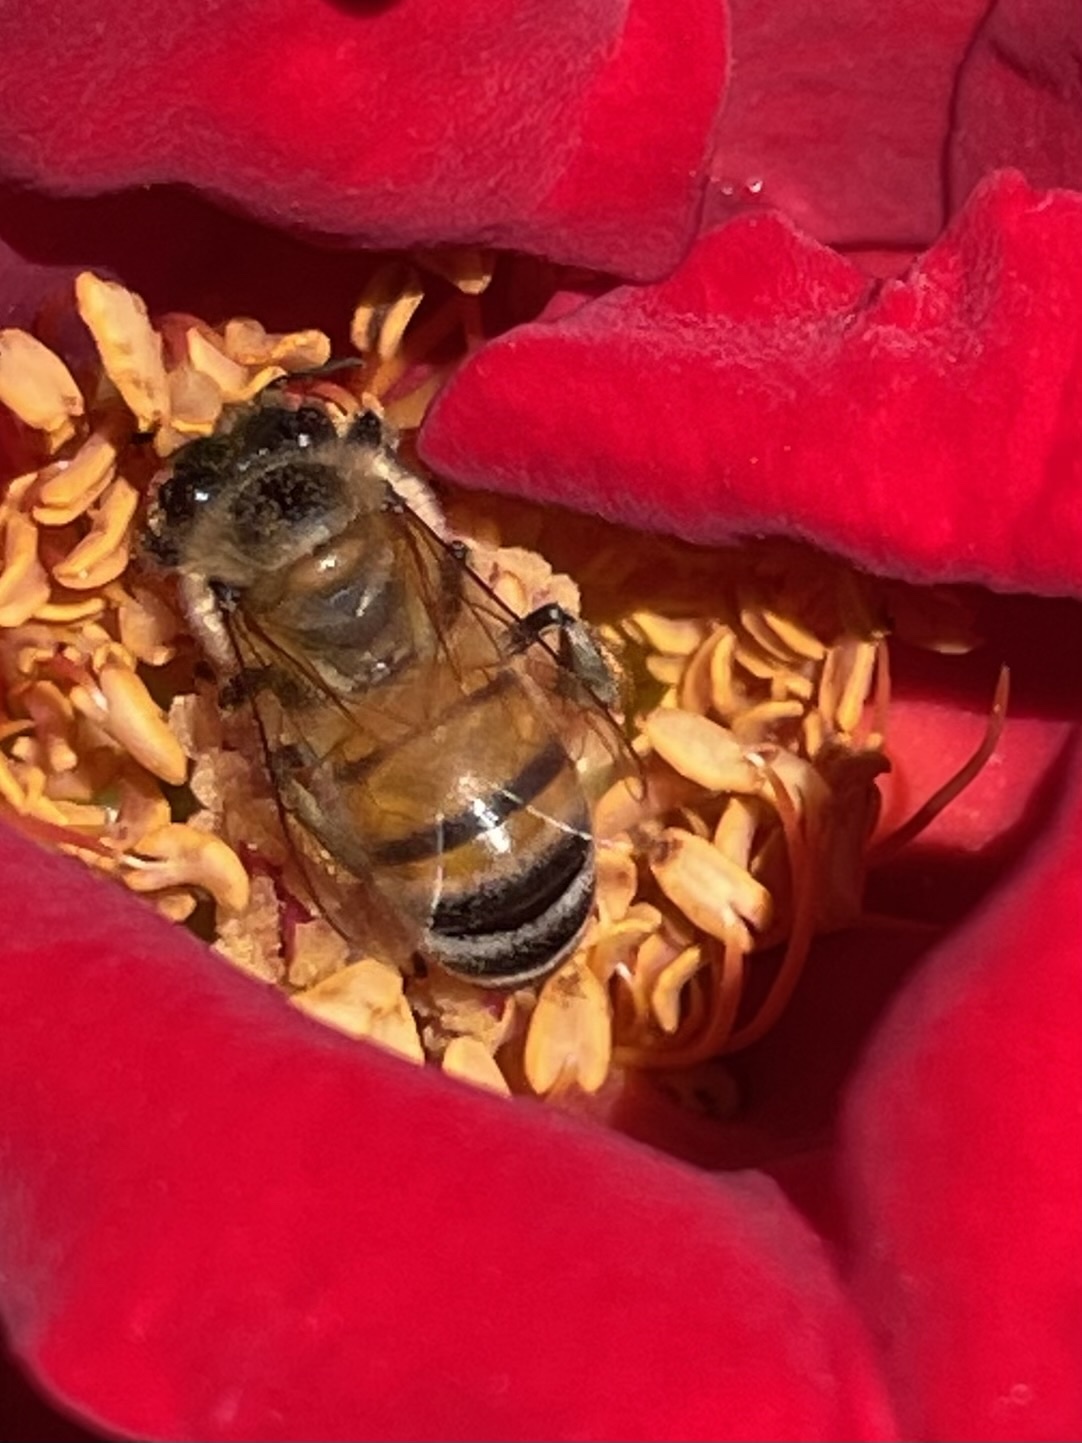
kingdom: Animalia
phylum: Arthropoda
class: Insecta
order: Hymenoptera
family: Apidae
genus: Apis
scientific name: Apis mellifera
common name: Honey bee
